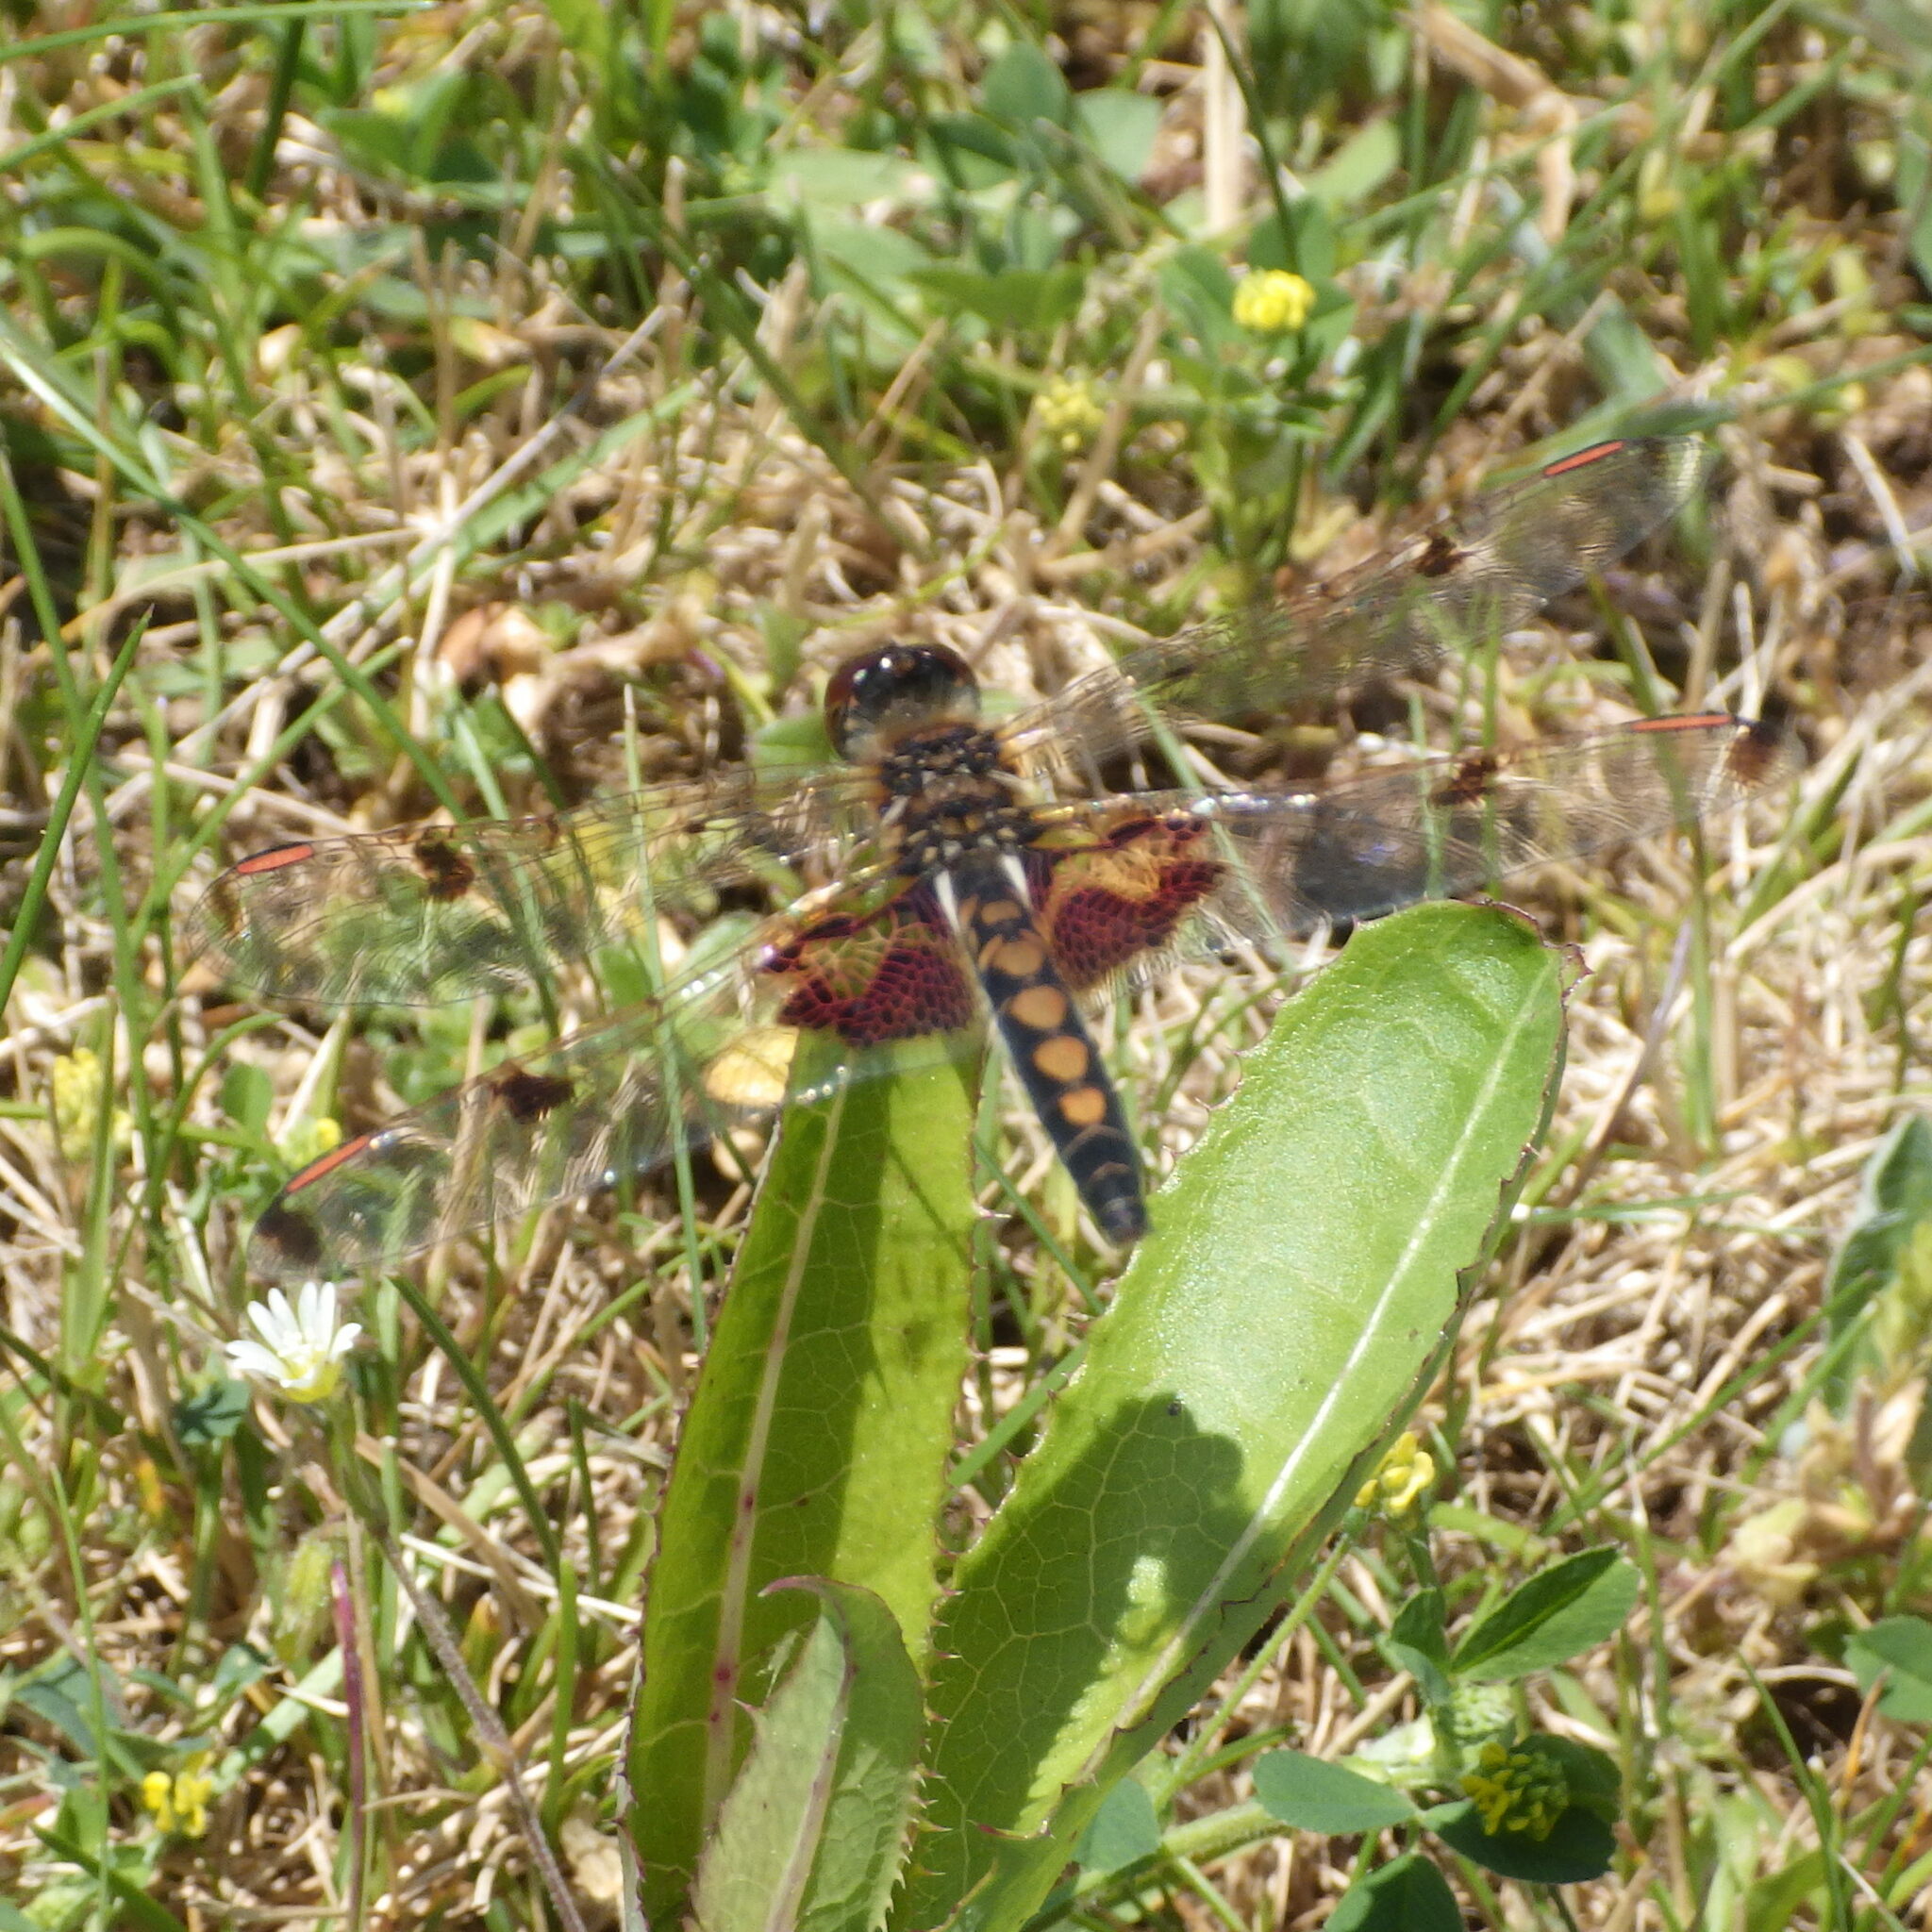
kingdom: Animalia
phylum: Arthropoda
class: Insecta
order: Odonata
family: Libellulidae
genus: Celithemis
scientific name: Celithemis elisa
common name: Calico pennant
